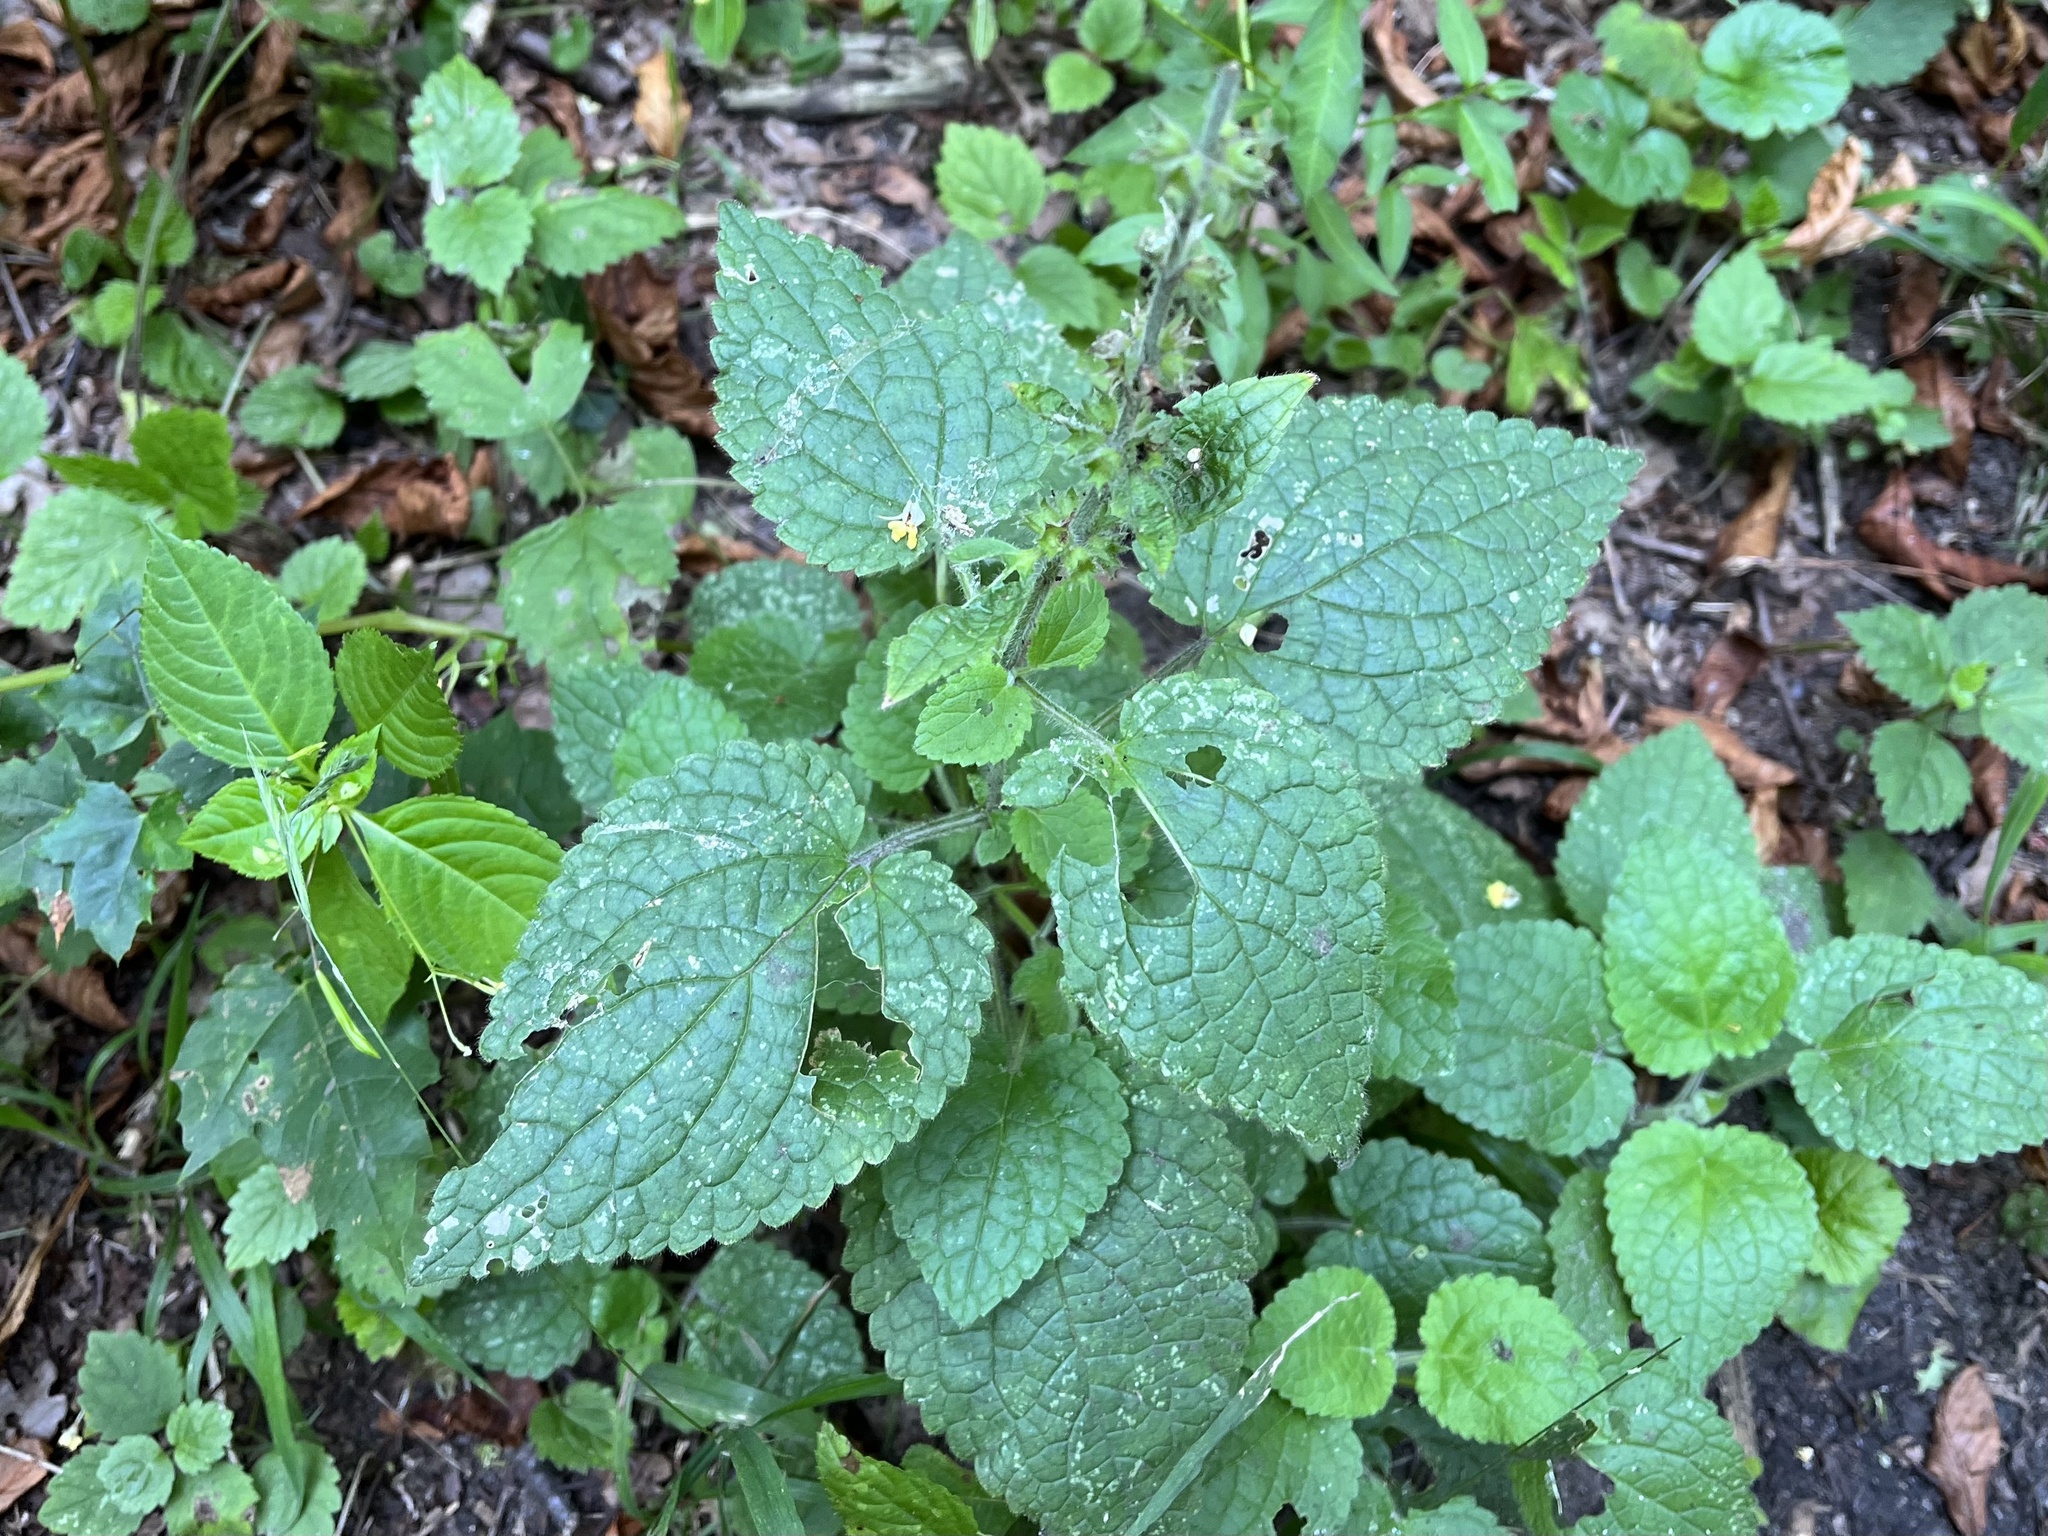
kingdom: Plantae
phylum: Tracheophyta
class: Magnoliopsida
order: Lamiales
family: Lamiaceae
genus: Stachys
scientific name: Stachys sylvatica
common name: Hedge woundwort
